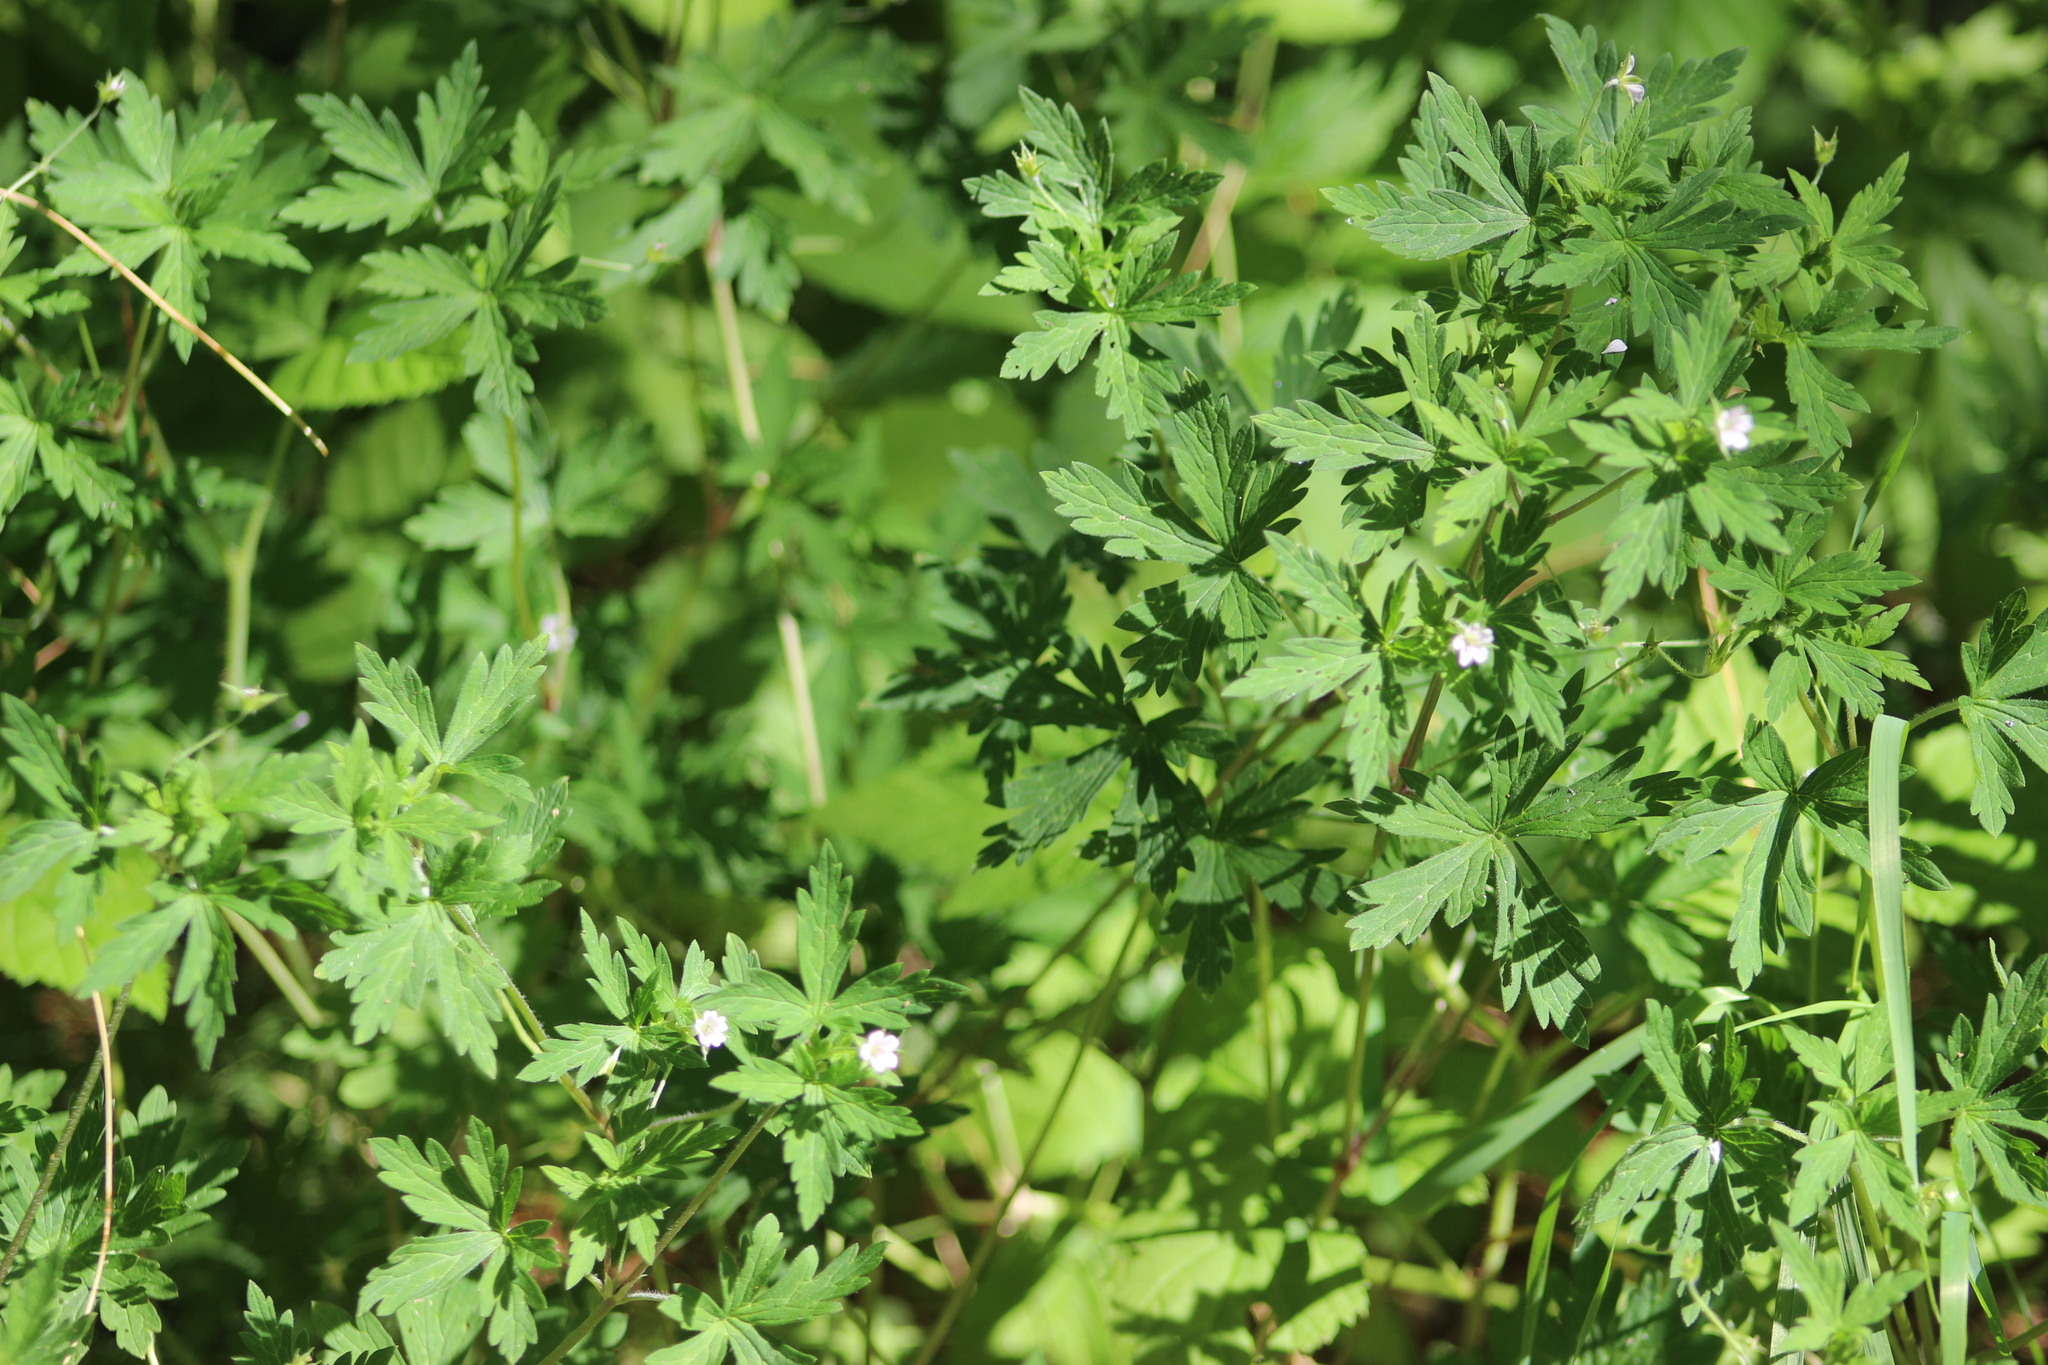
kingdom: Plantae
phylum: Tracheophyta
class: Magnoliopsida
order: Geraniales
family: Geraniaceae
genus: Geranium
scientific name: Geranium sibiricum
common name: Siberian crane's-bill
